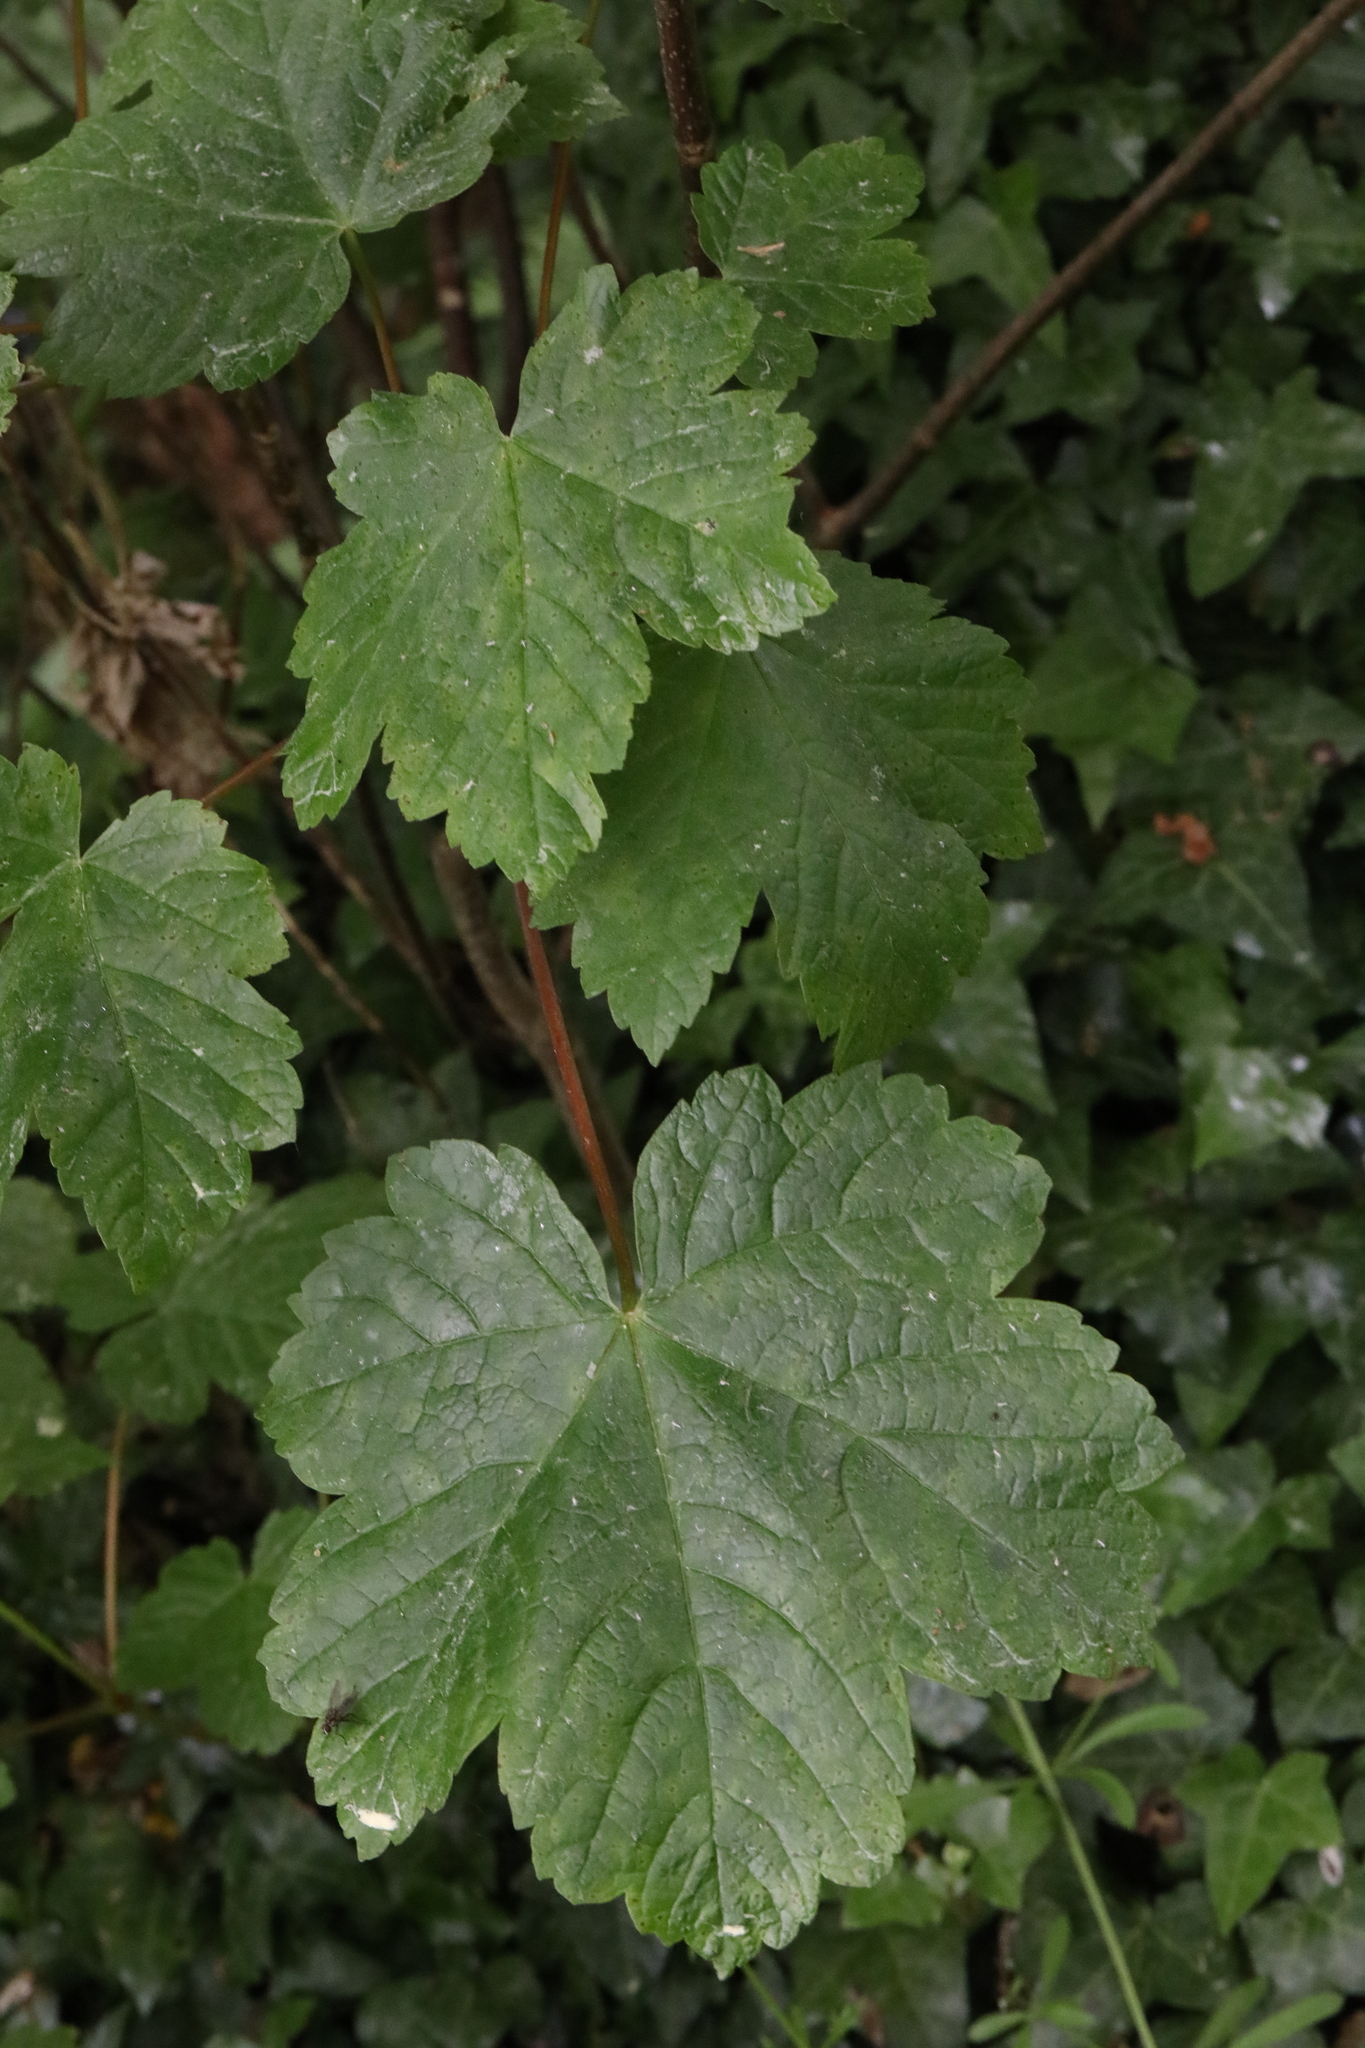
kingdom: Plantae
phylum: Tracheophyta
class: Magnoliopsida
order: Sapindales
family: Sapindaceae
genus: Acer
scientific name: Acer pseudoplatanus
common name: Sycamore
